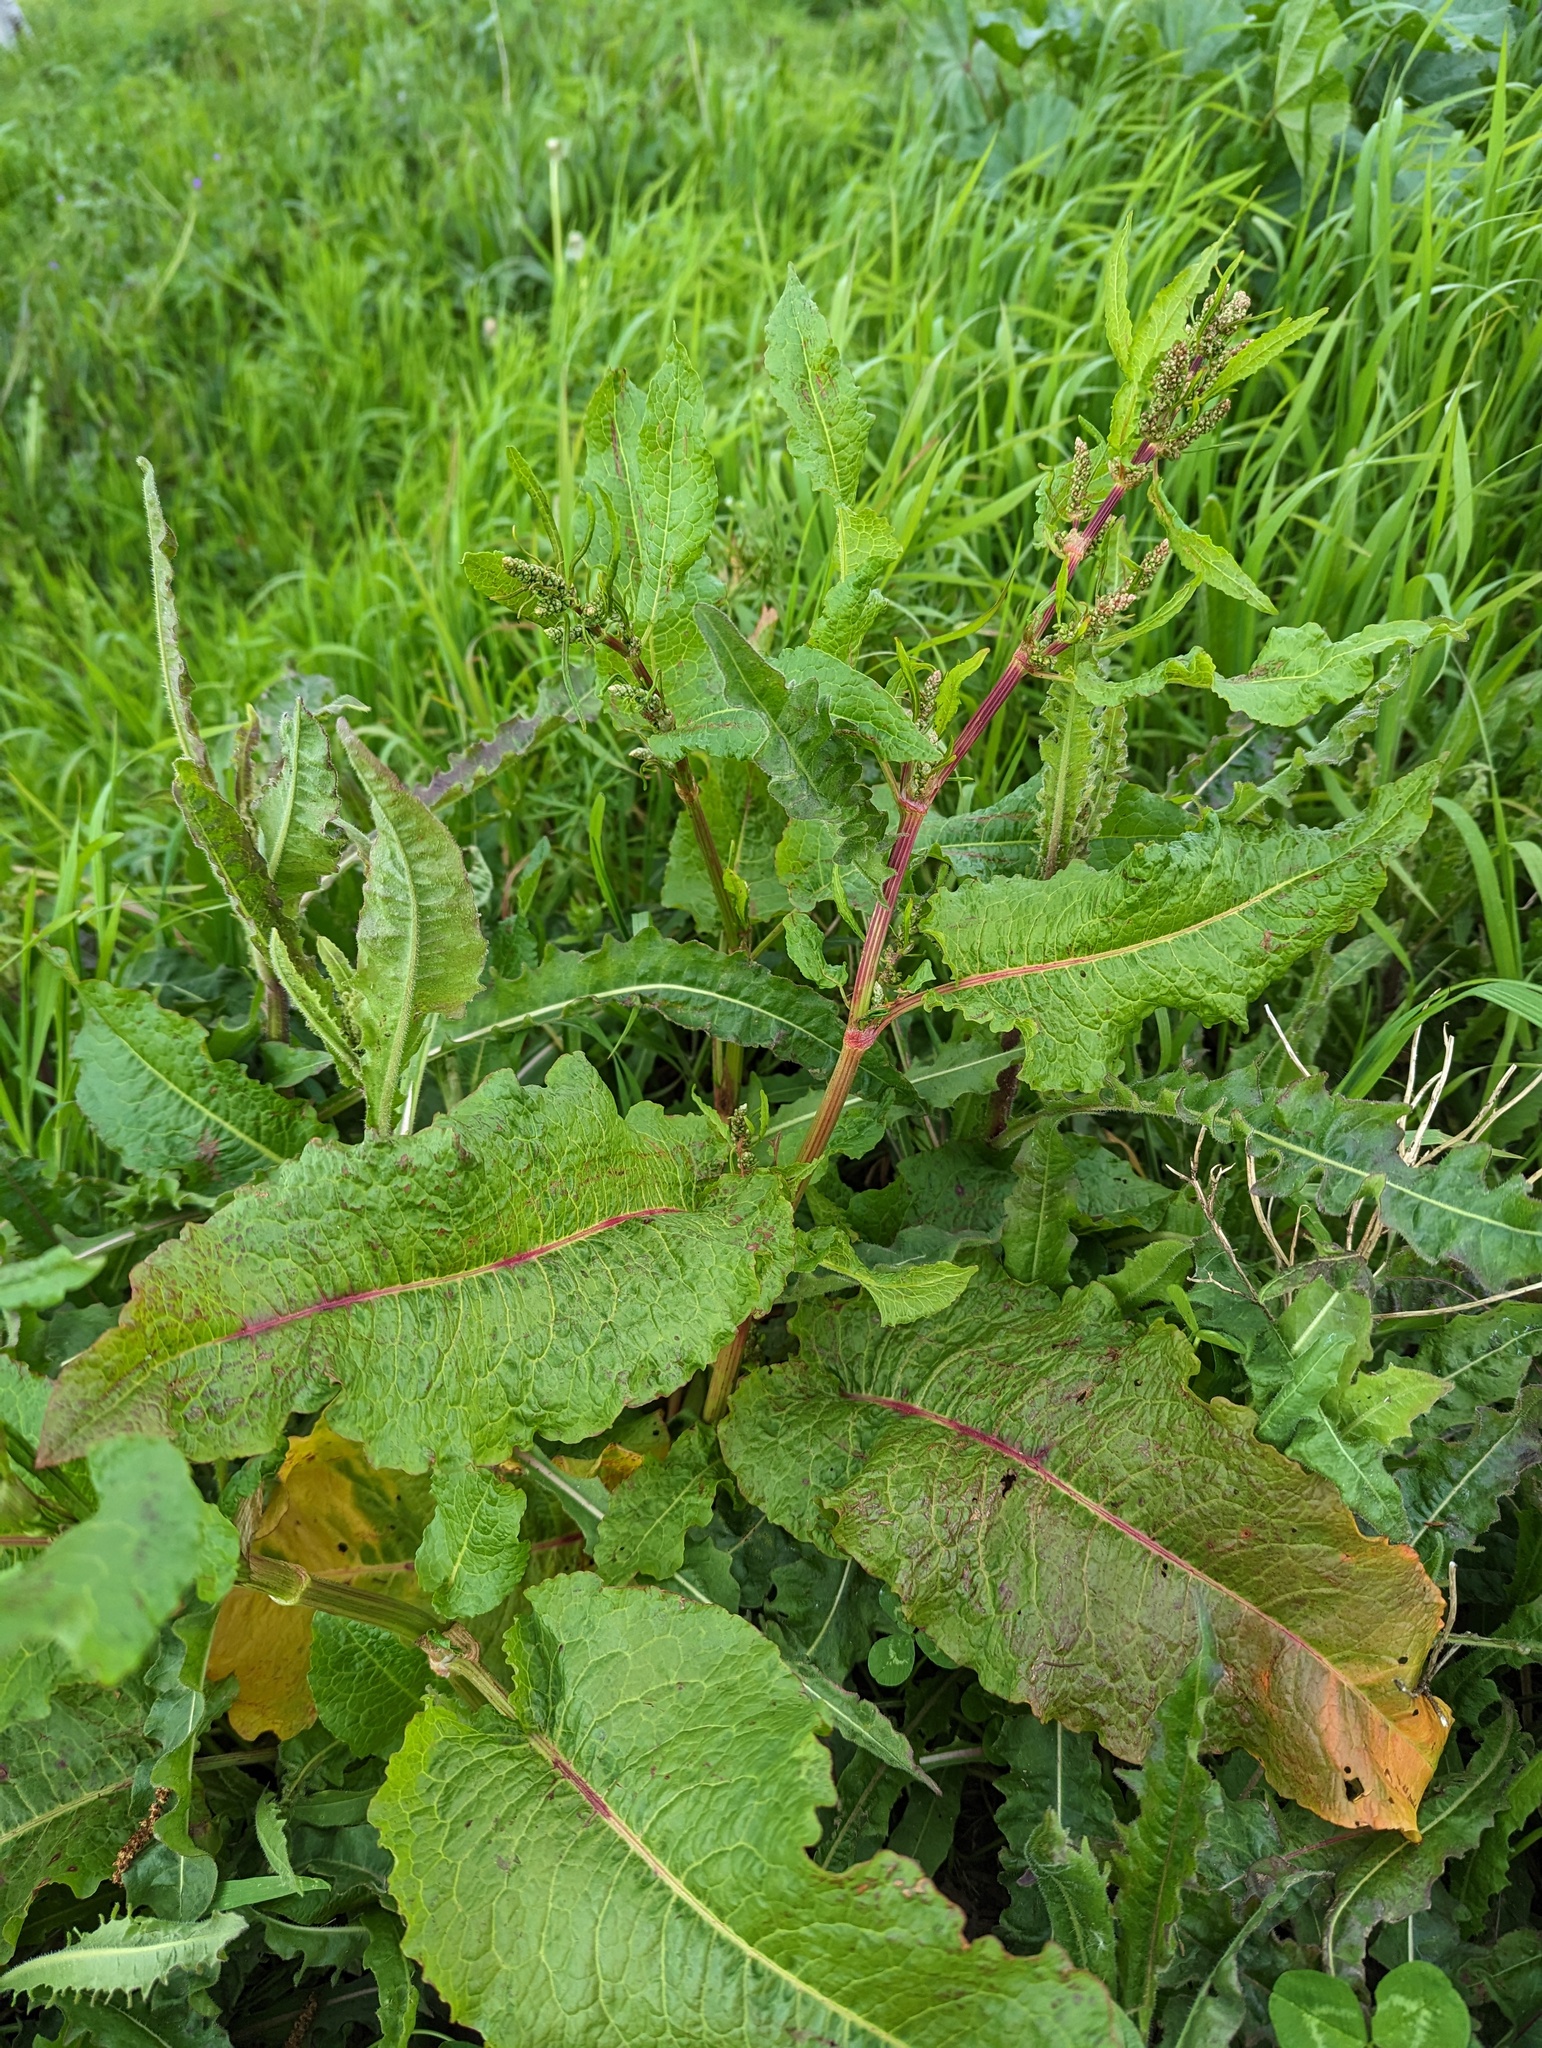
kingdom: Plantae
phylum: Tracheophyta
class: Magnoliopsida
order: Caryophyllales
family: Polygonaceae
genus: Rumex
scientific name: Rumex obtusifolius
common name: Bitter dock
